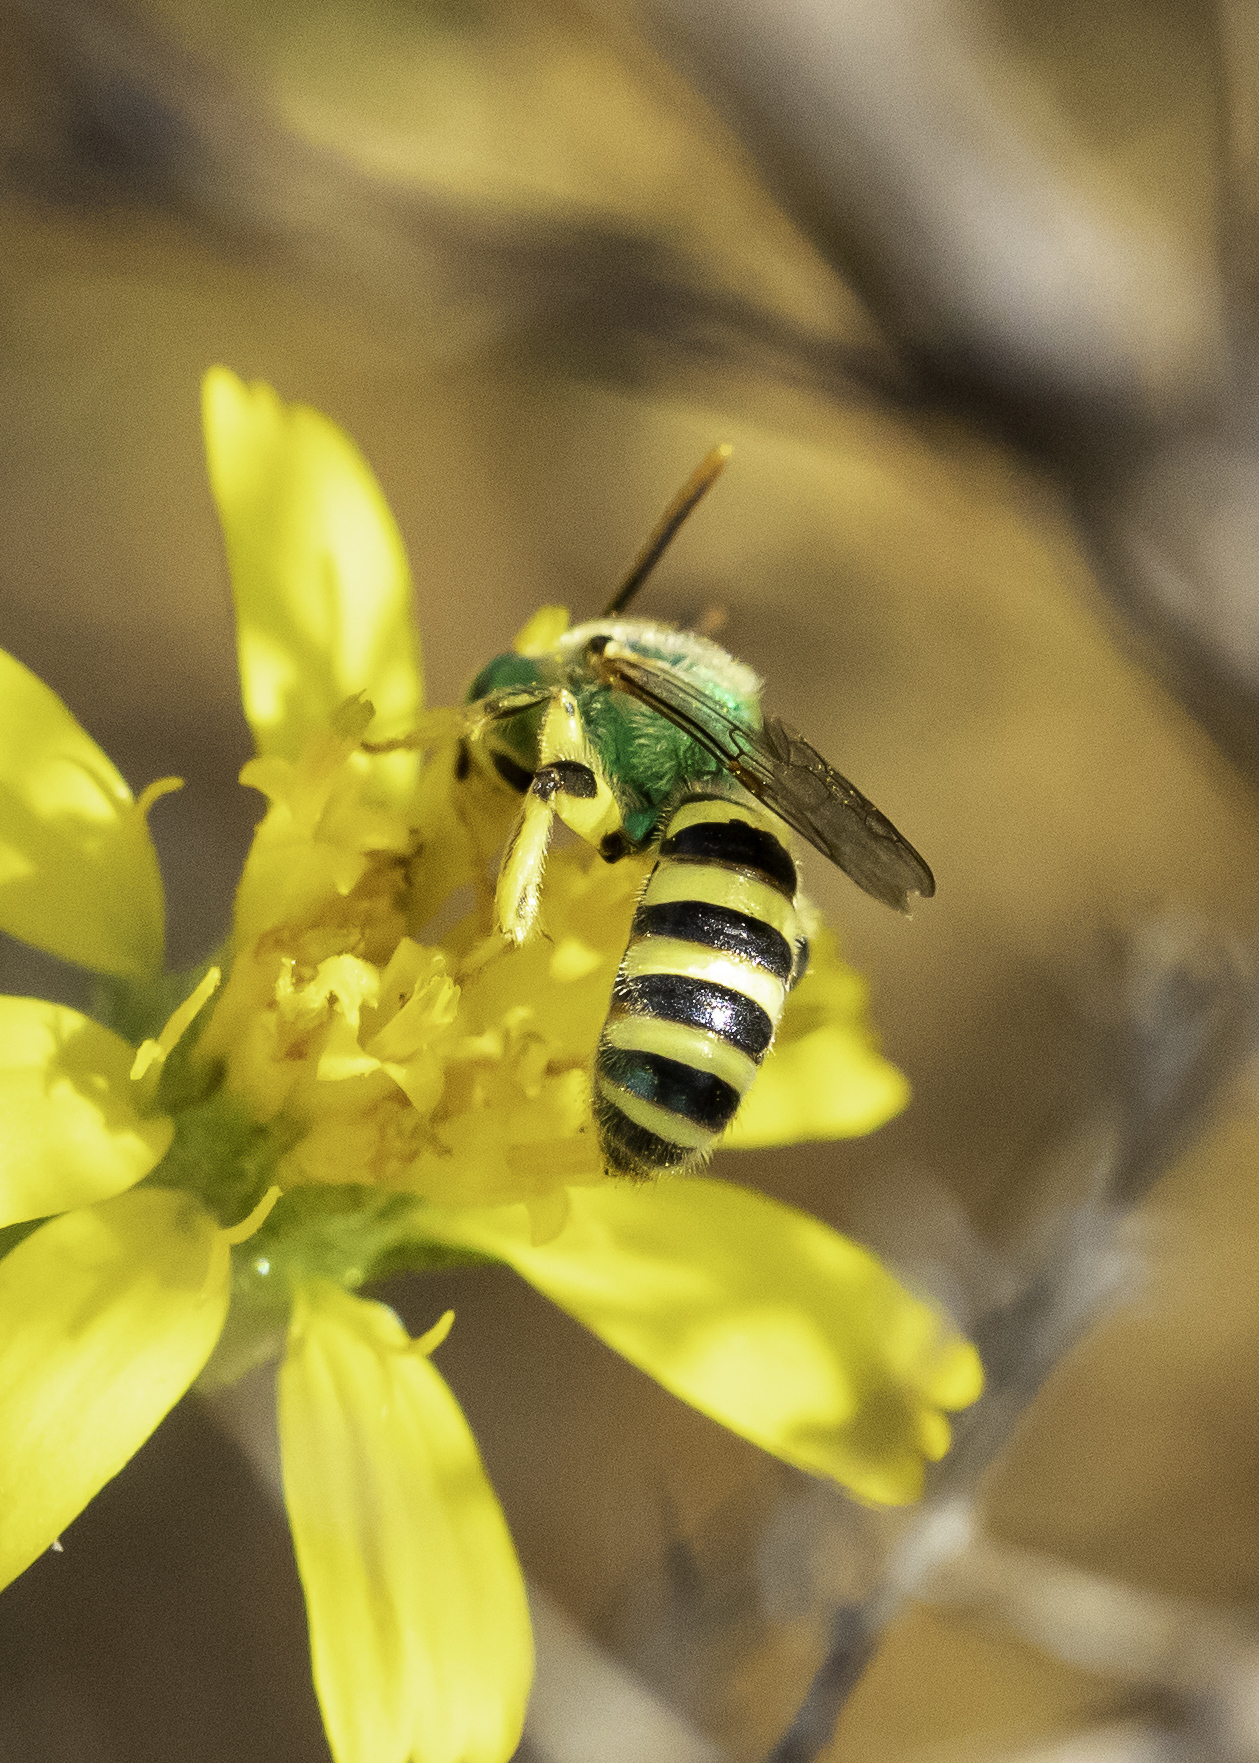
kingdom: Animalia
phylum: Arthropoda
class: Insecta
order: Hymenoptera
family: Halictidae
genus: Agapostemon
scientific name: Agapostemon texanus
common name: Texas striped sweat bee
